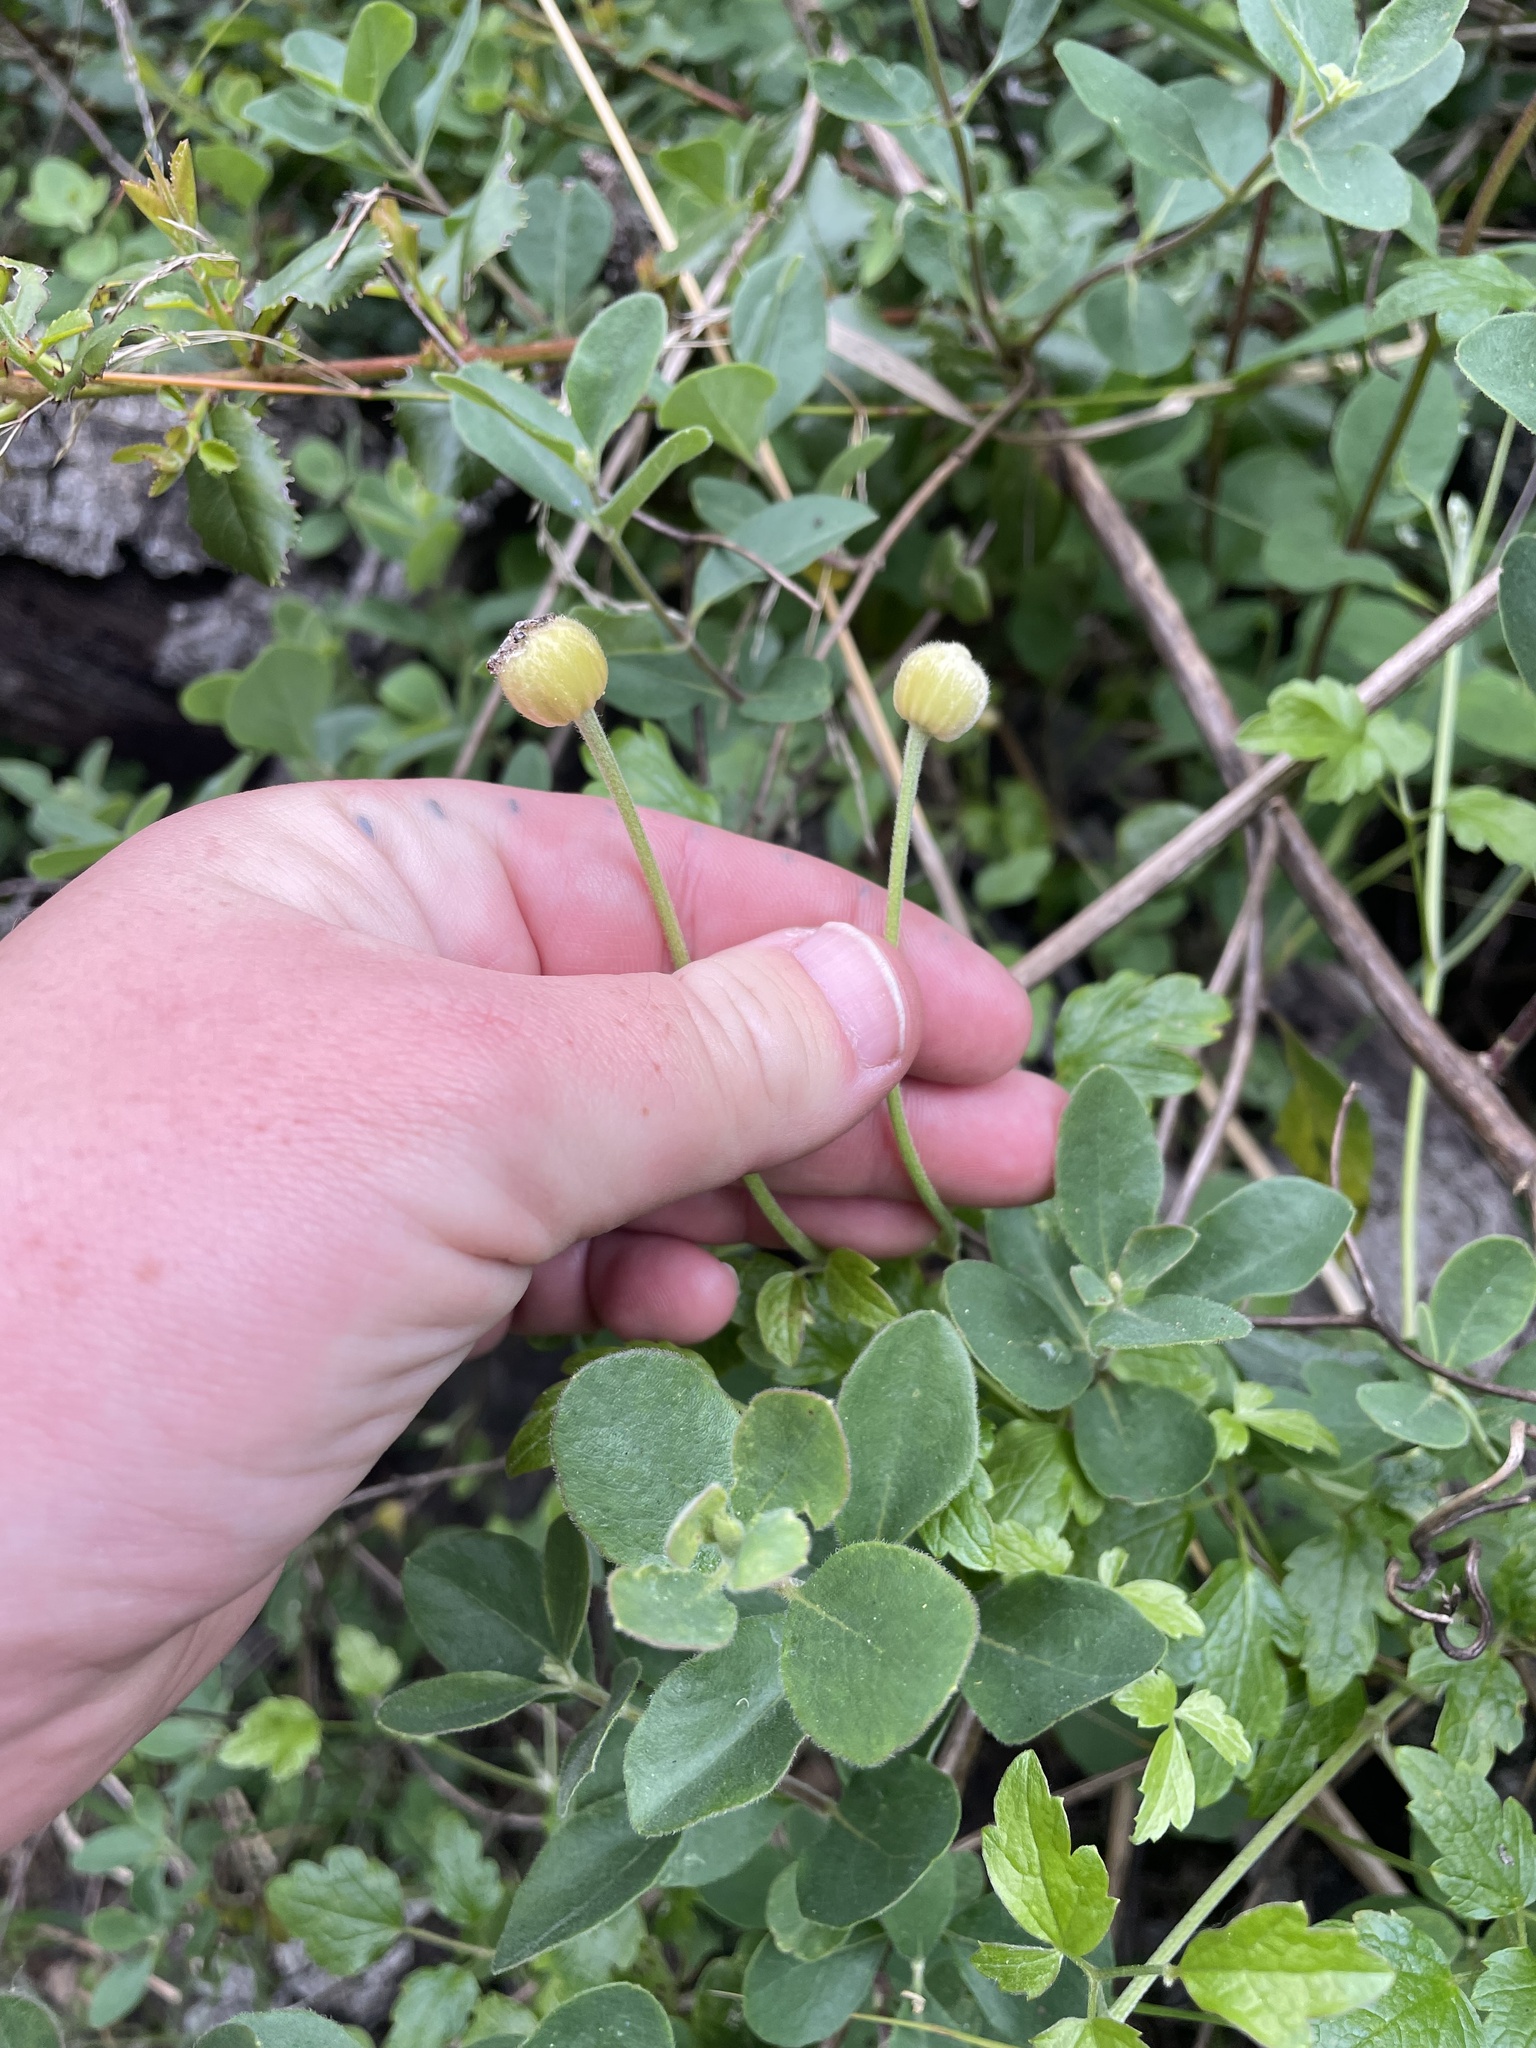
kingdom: Plantae
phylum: Tracheophyta
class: Magnoliopsida
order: Ranunculales
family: Ranunculaceae
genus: Clematis
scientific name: Clematis lasiantha
